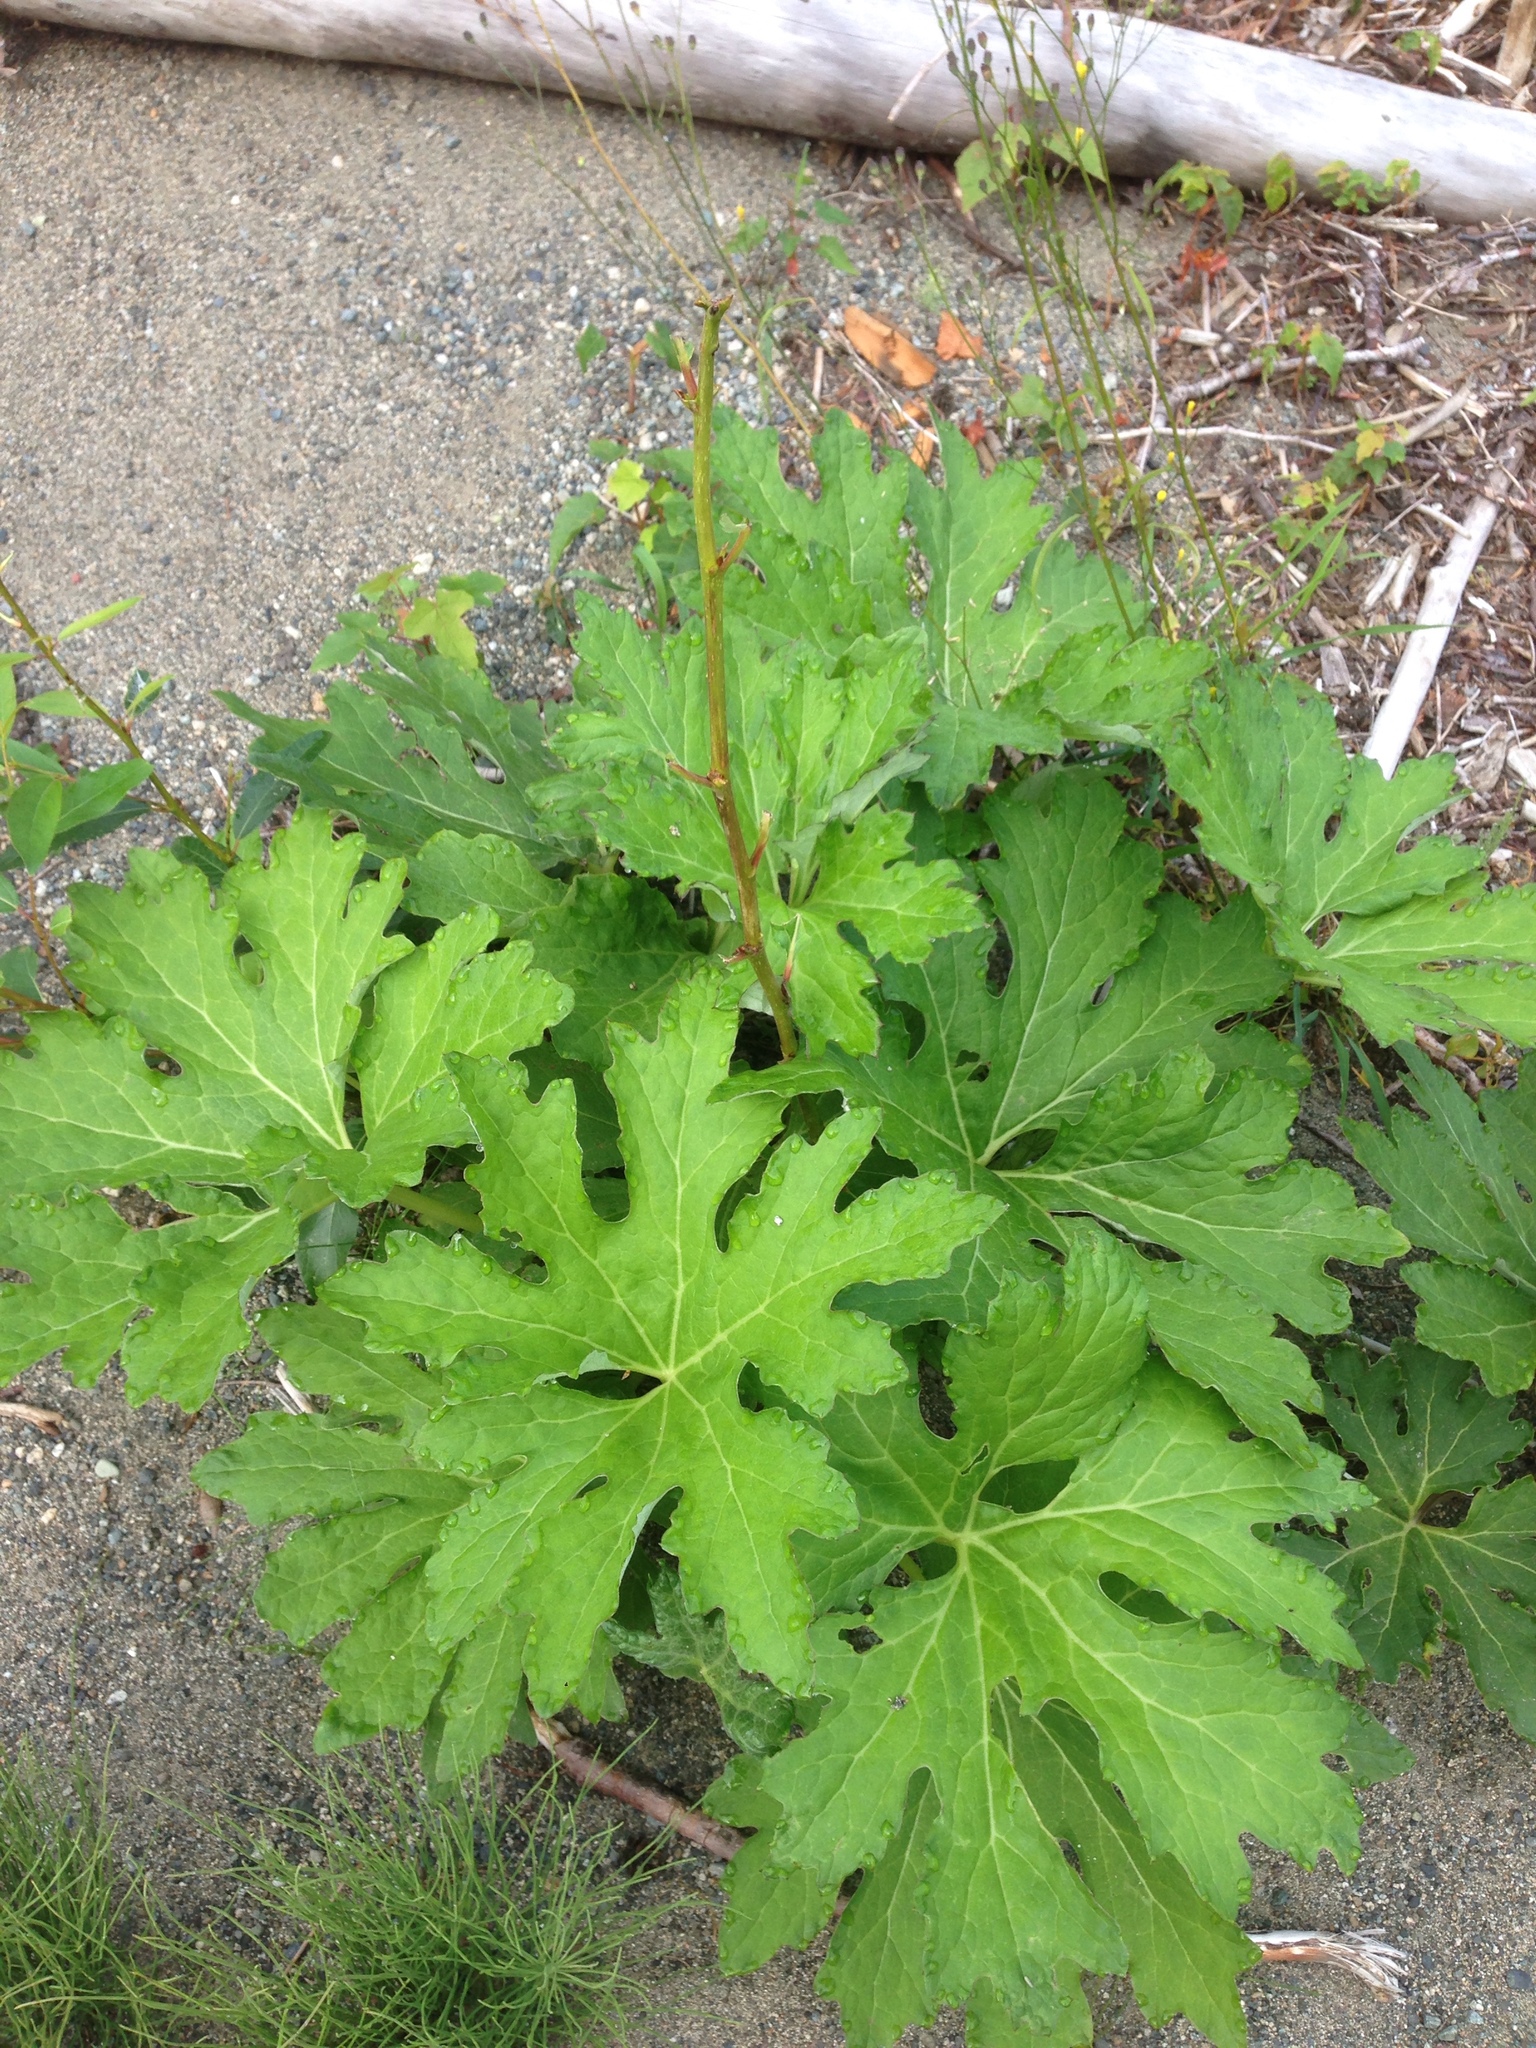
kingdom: Plantae
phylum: Tracheophyta
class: Magnoliopsida
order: Asterales
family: Asteraceae
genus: Petasites
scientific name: Petasites frigidus
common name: Arctic butterbur
